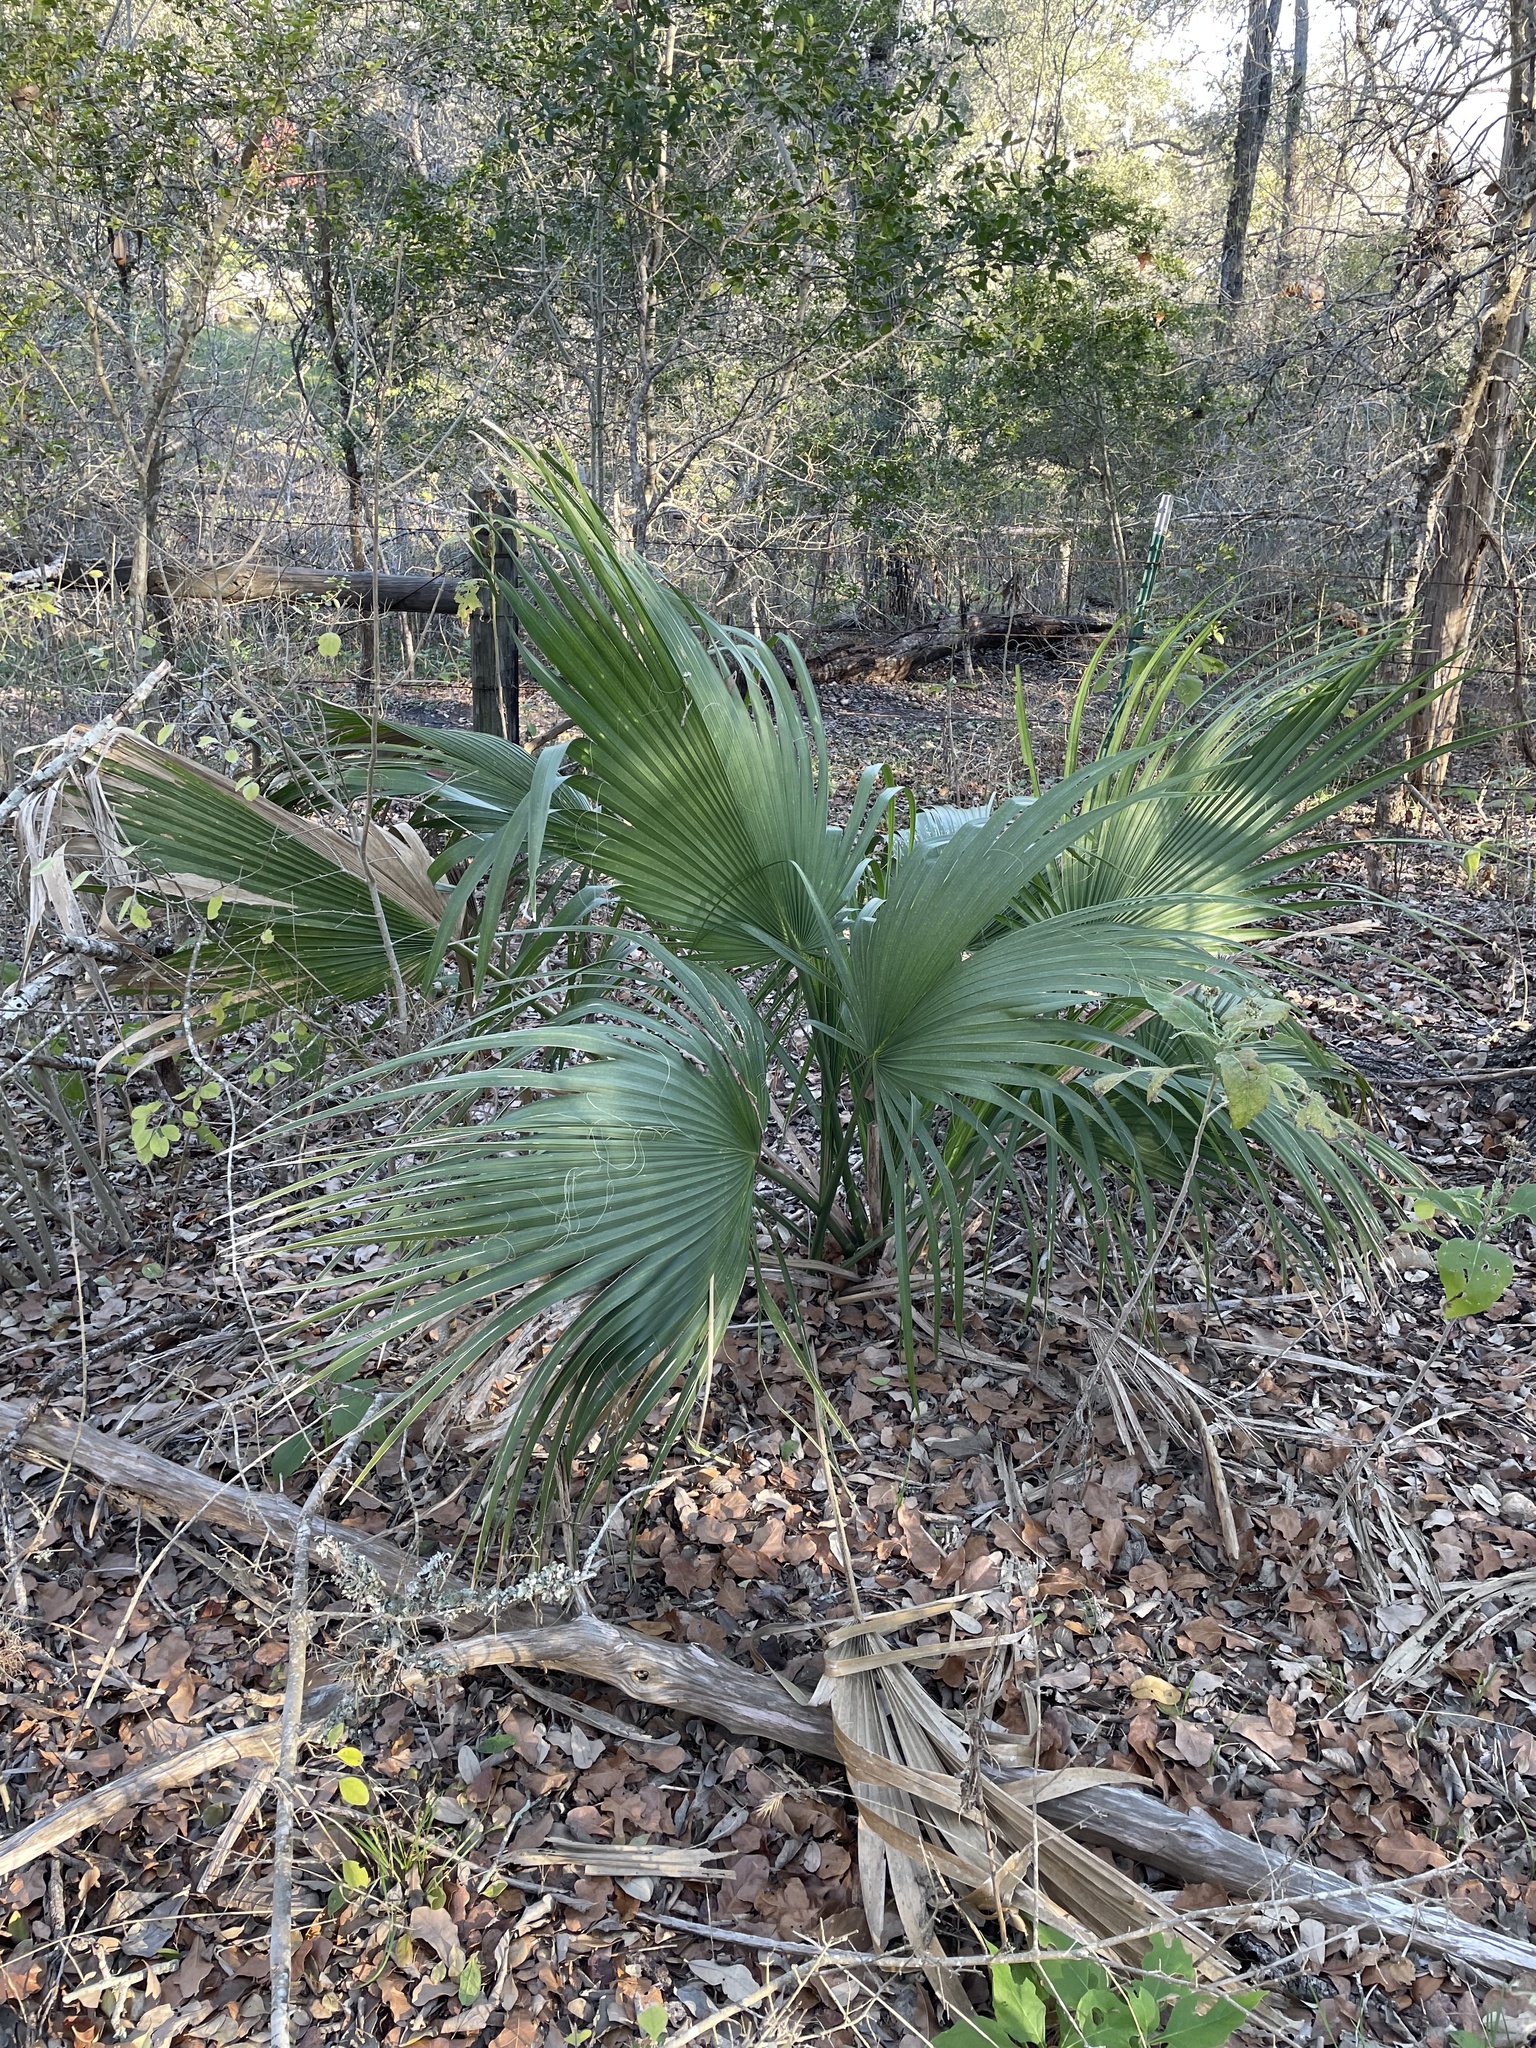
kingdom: Plantae
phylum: Tracheophyta
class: Liliopsida
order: Arecales
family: Arecaceae
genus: Sabal
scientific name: Sabal minor
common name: Dwarf palmetto
